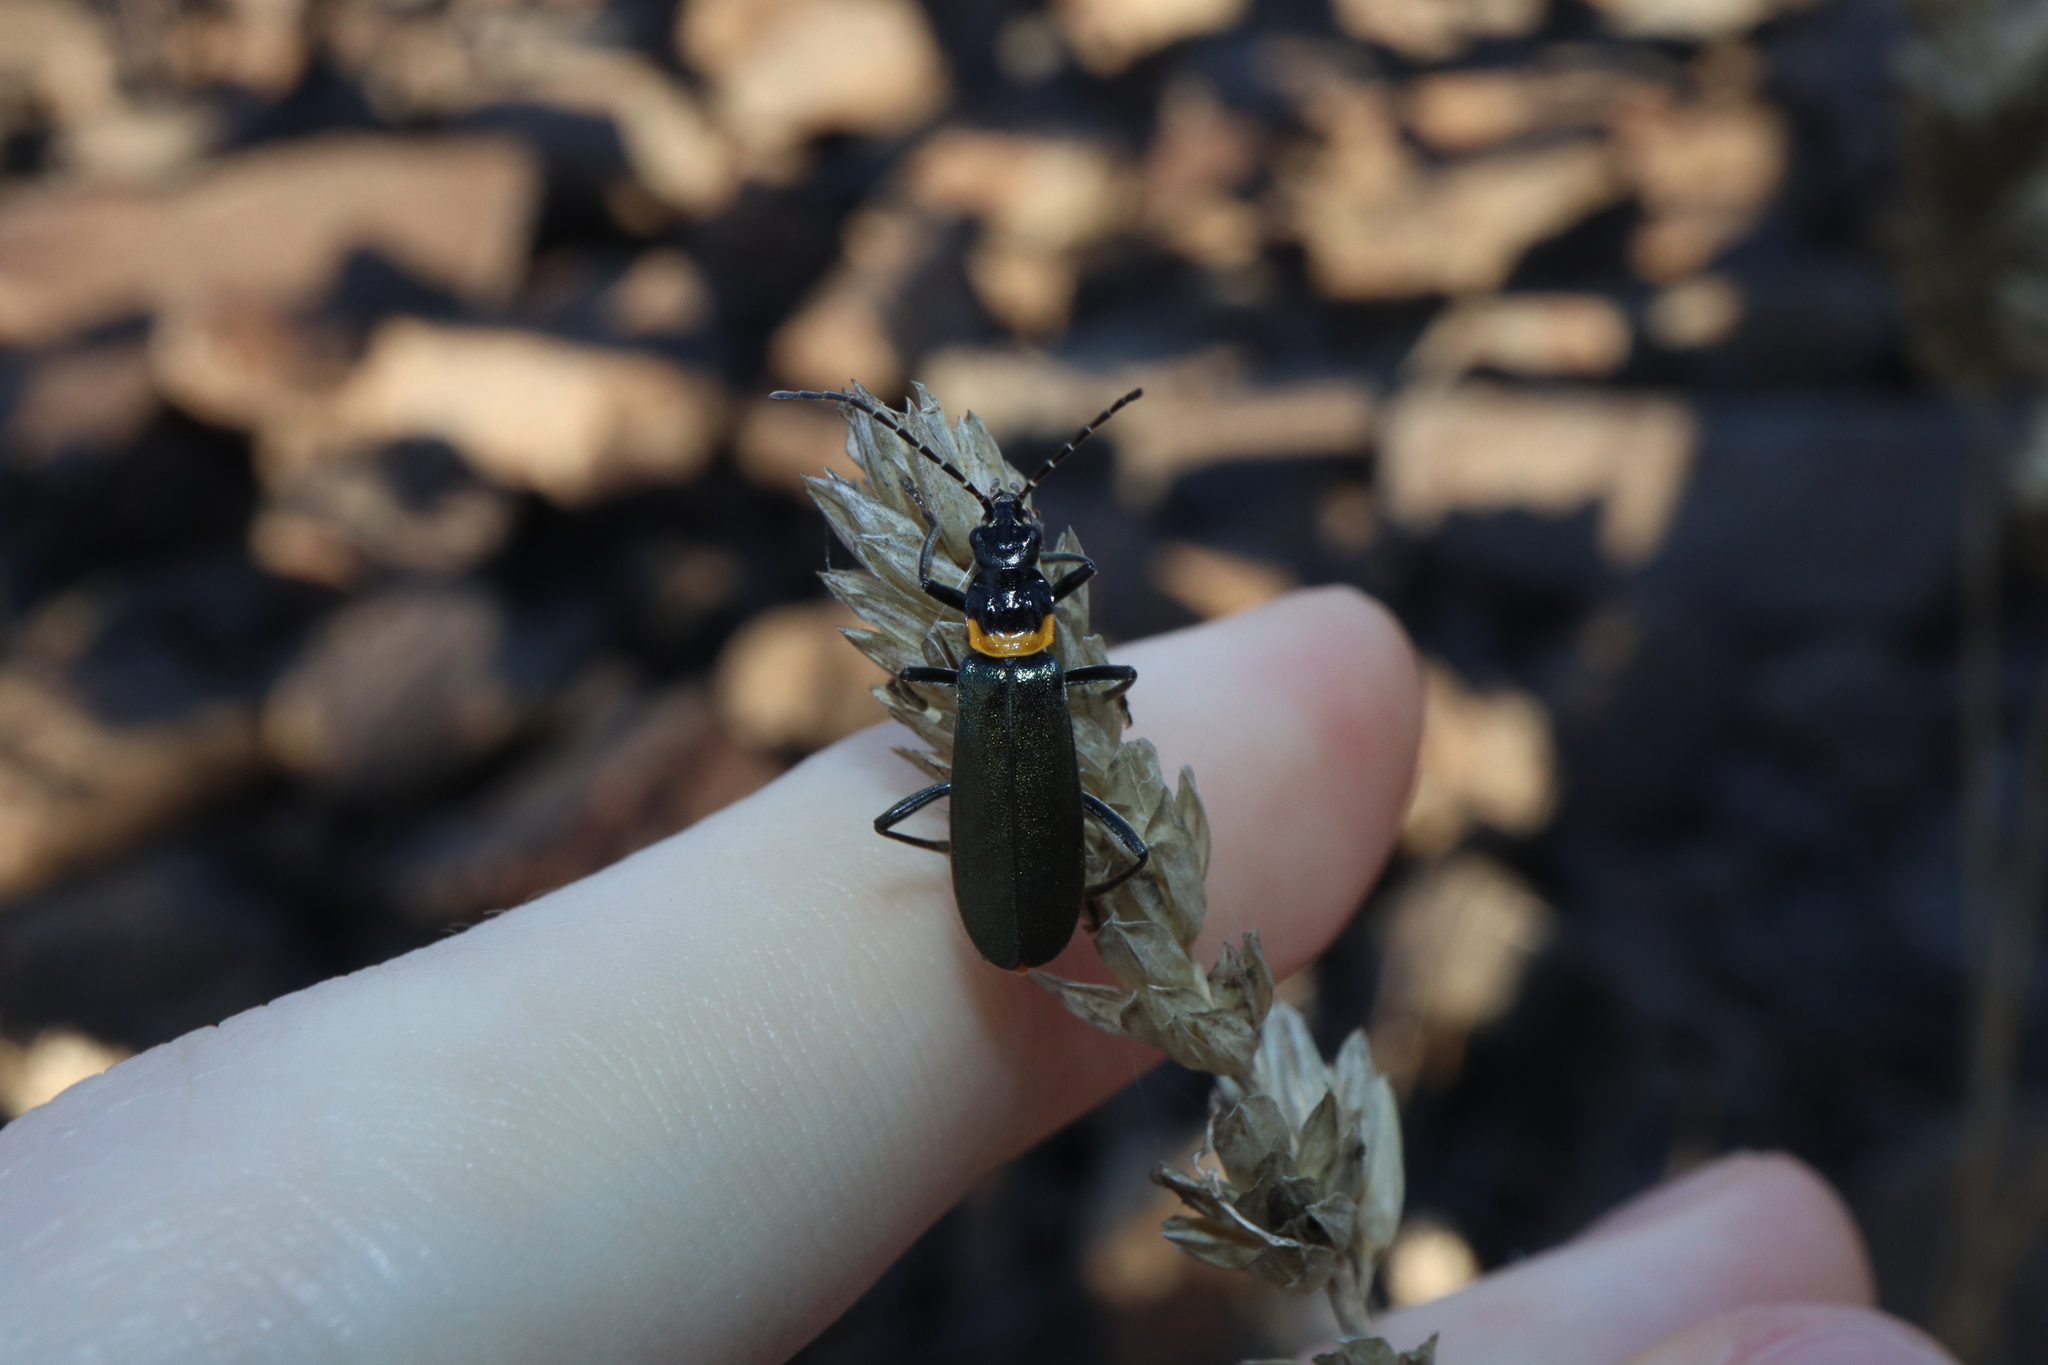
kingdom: Animalia
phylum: Arthropoda
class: Insecta
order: Coleoptera
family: Cantharidae
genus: Chauliognathus
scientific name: Chauliognathus
